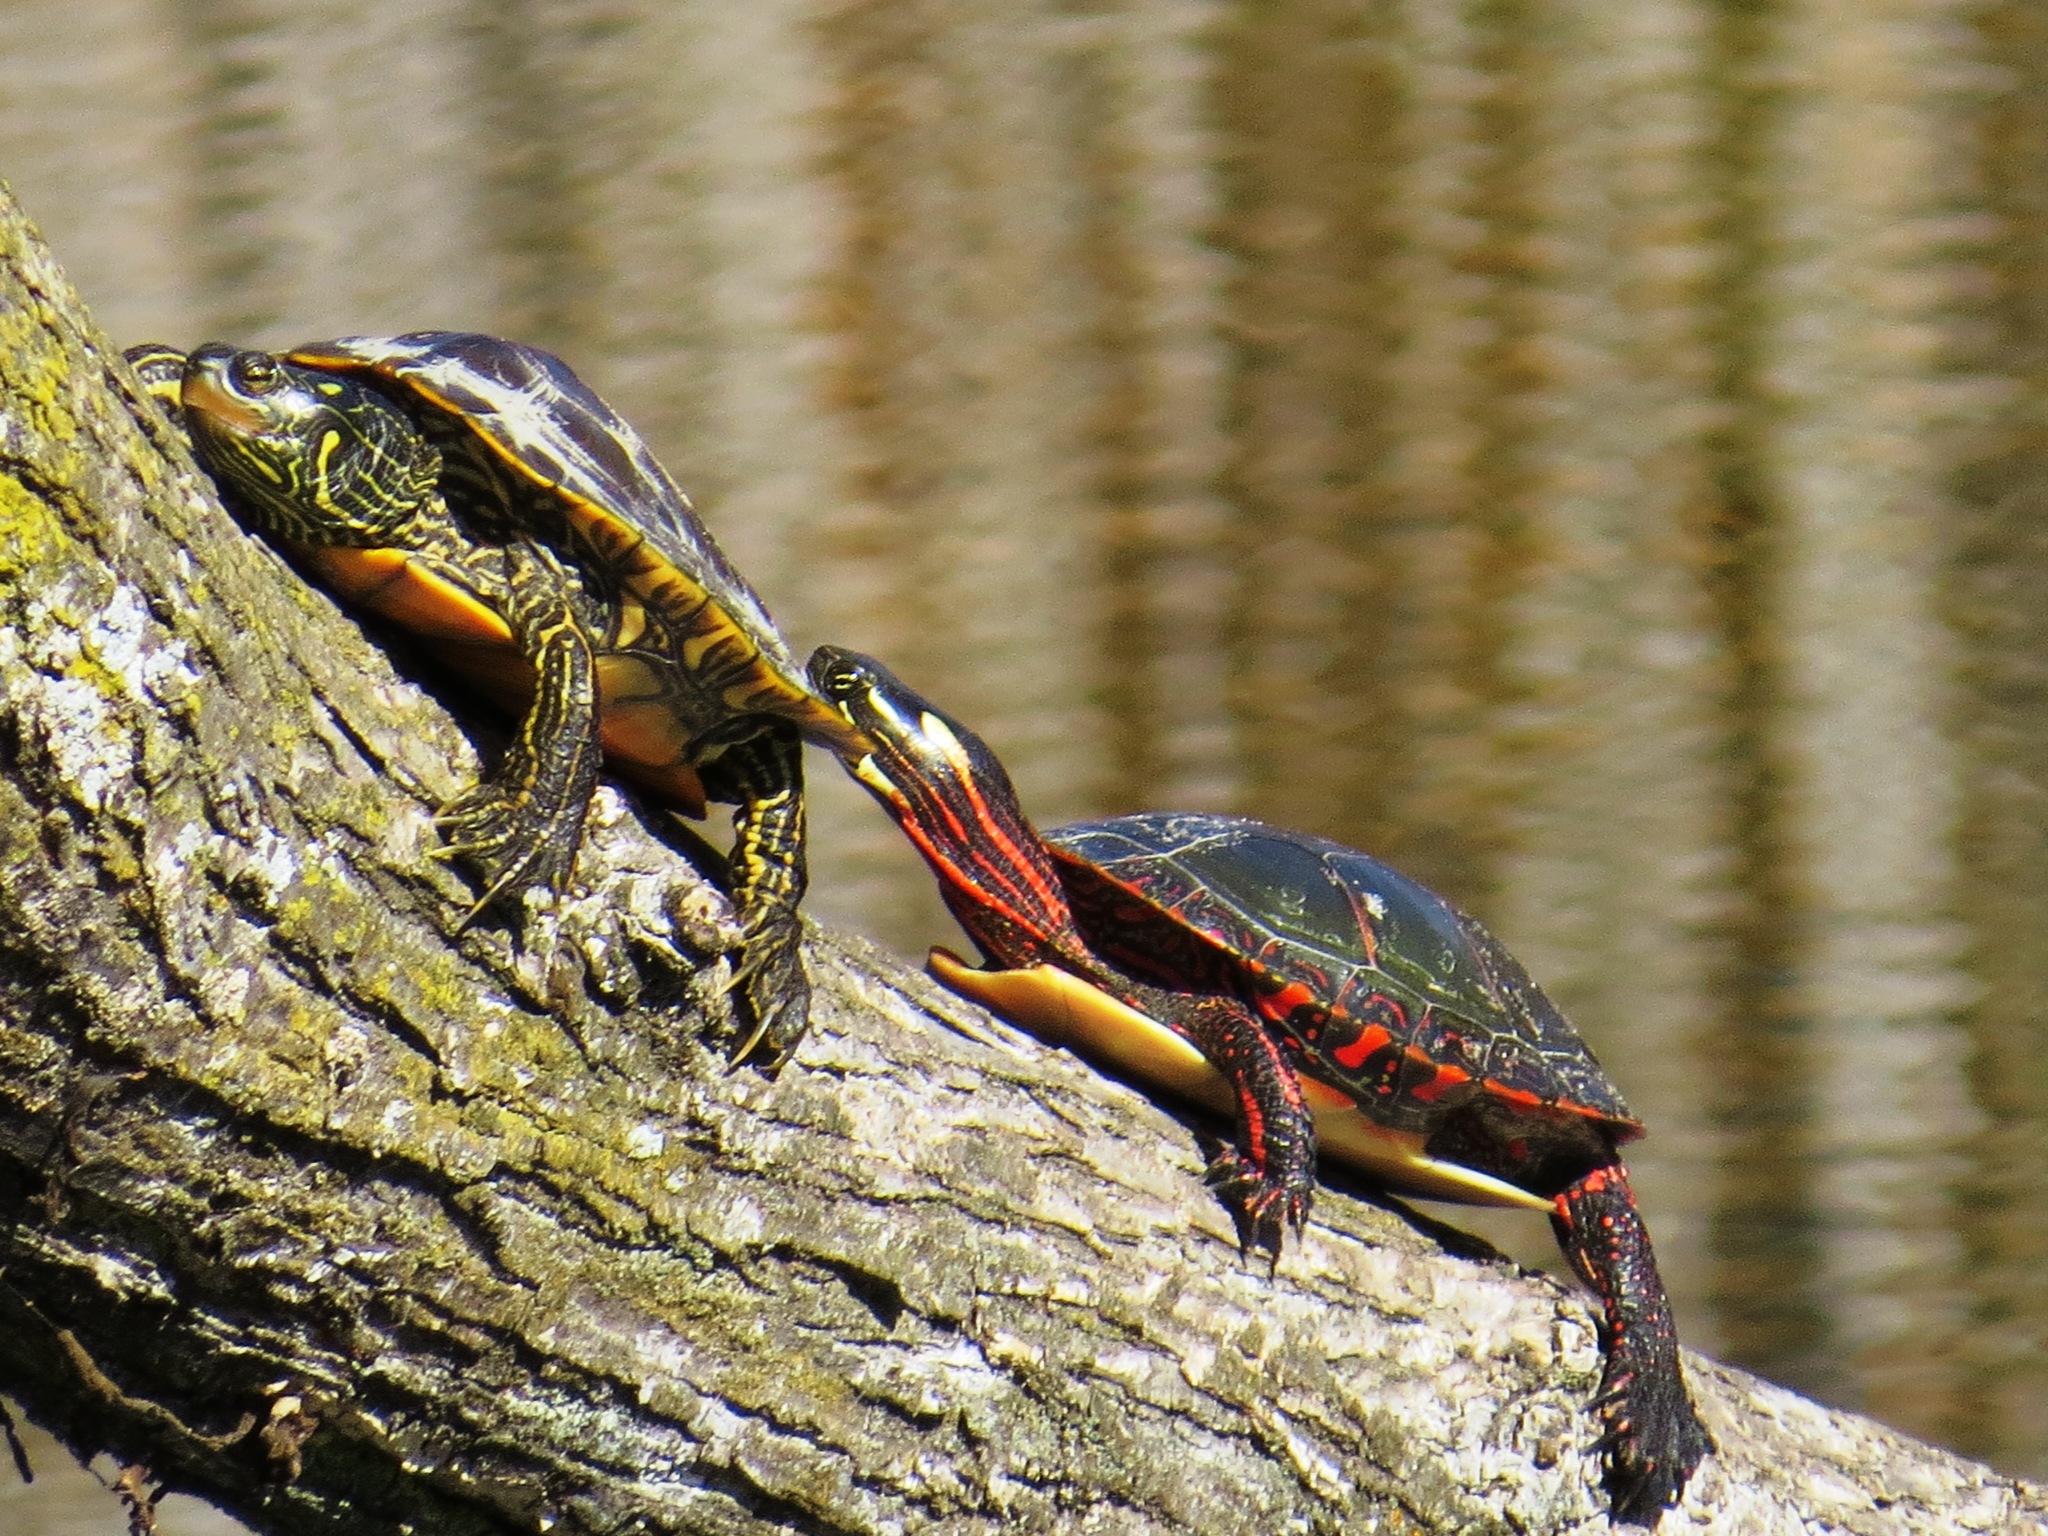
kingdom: Animalia
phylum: Chordata
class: Testudines
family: Emydidae
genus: Graptemys
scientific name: Graptemys geographica
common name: Common map turtle
